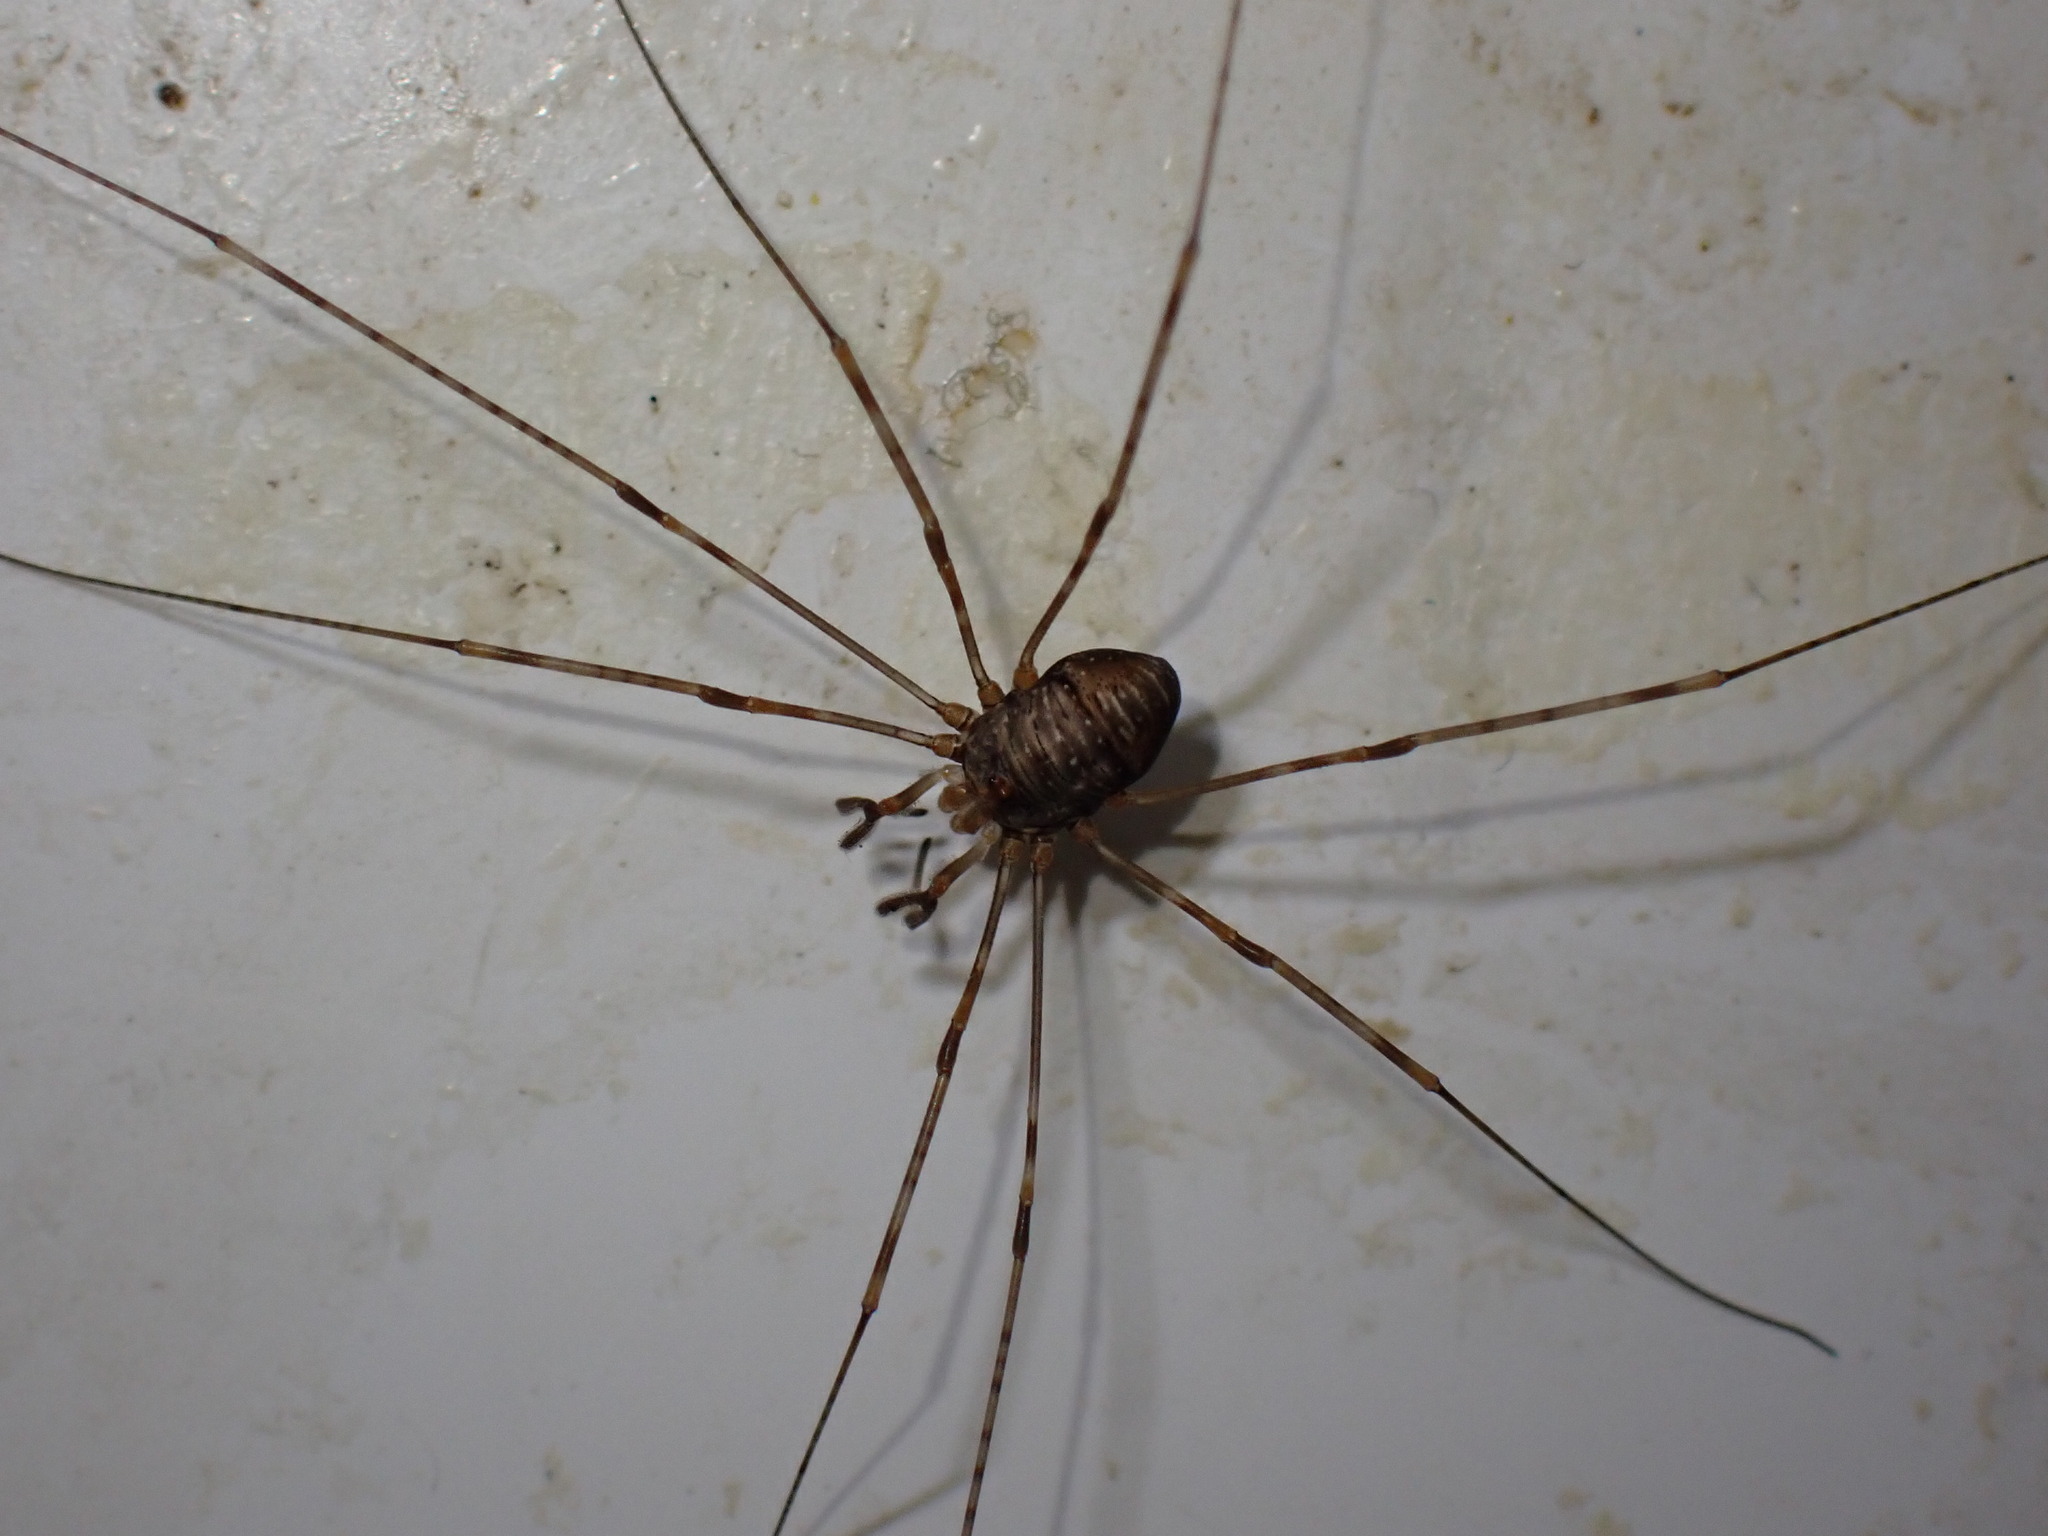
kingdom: Animalia
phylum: Arthropoda
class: Arachnida
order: Opiliones
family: Phalangiidae
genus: Dicranopalpus
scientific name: Dicranopalpus ramosus
